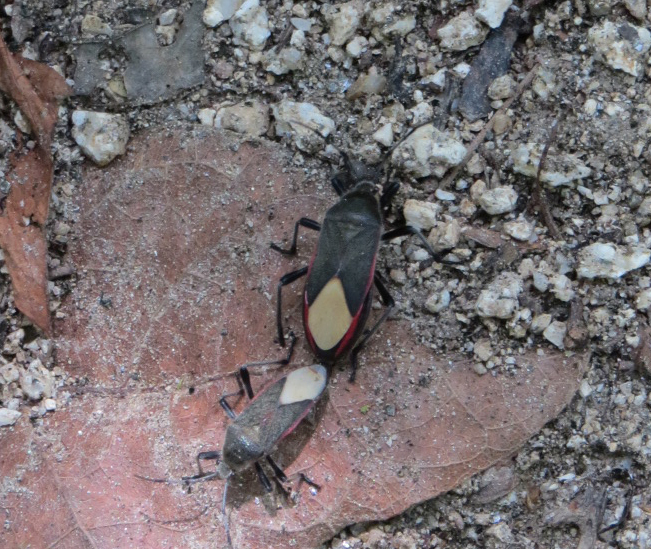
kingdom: Animalia
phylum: Arthropoda
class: Insecta
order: Hemiptera
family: Largidae
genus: Largus
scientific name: Largus subligatus
